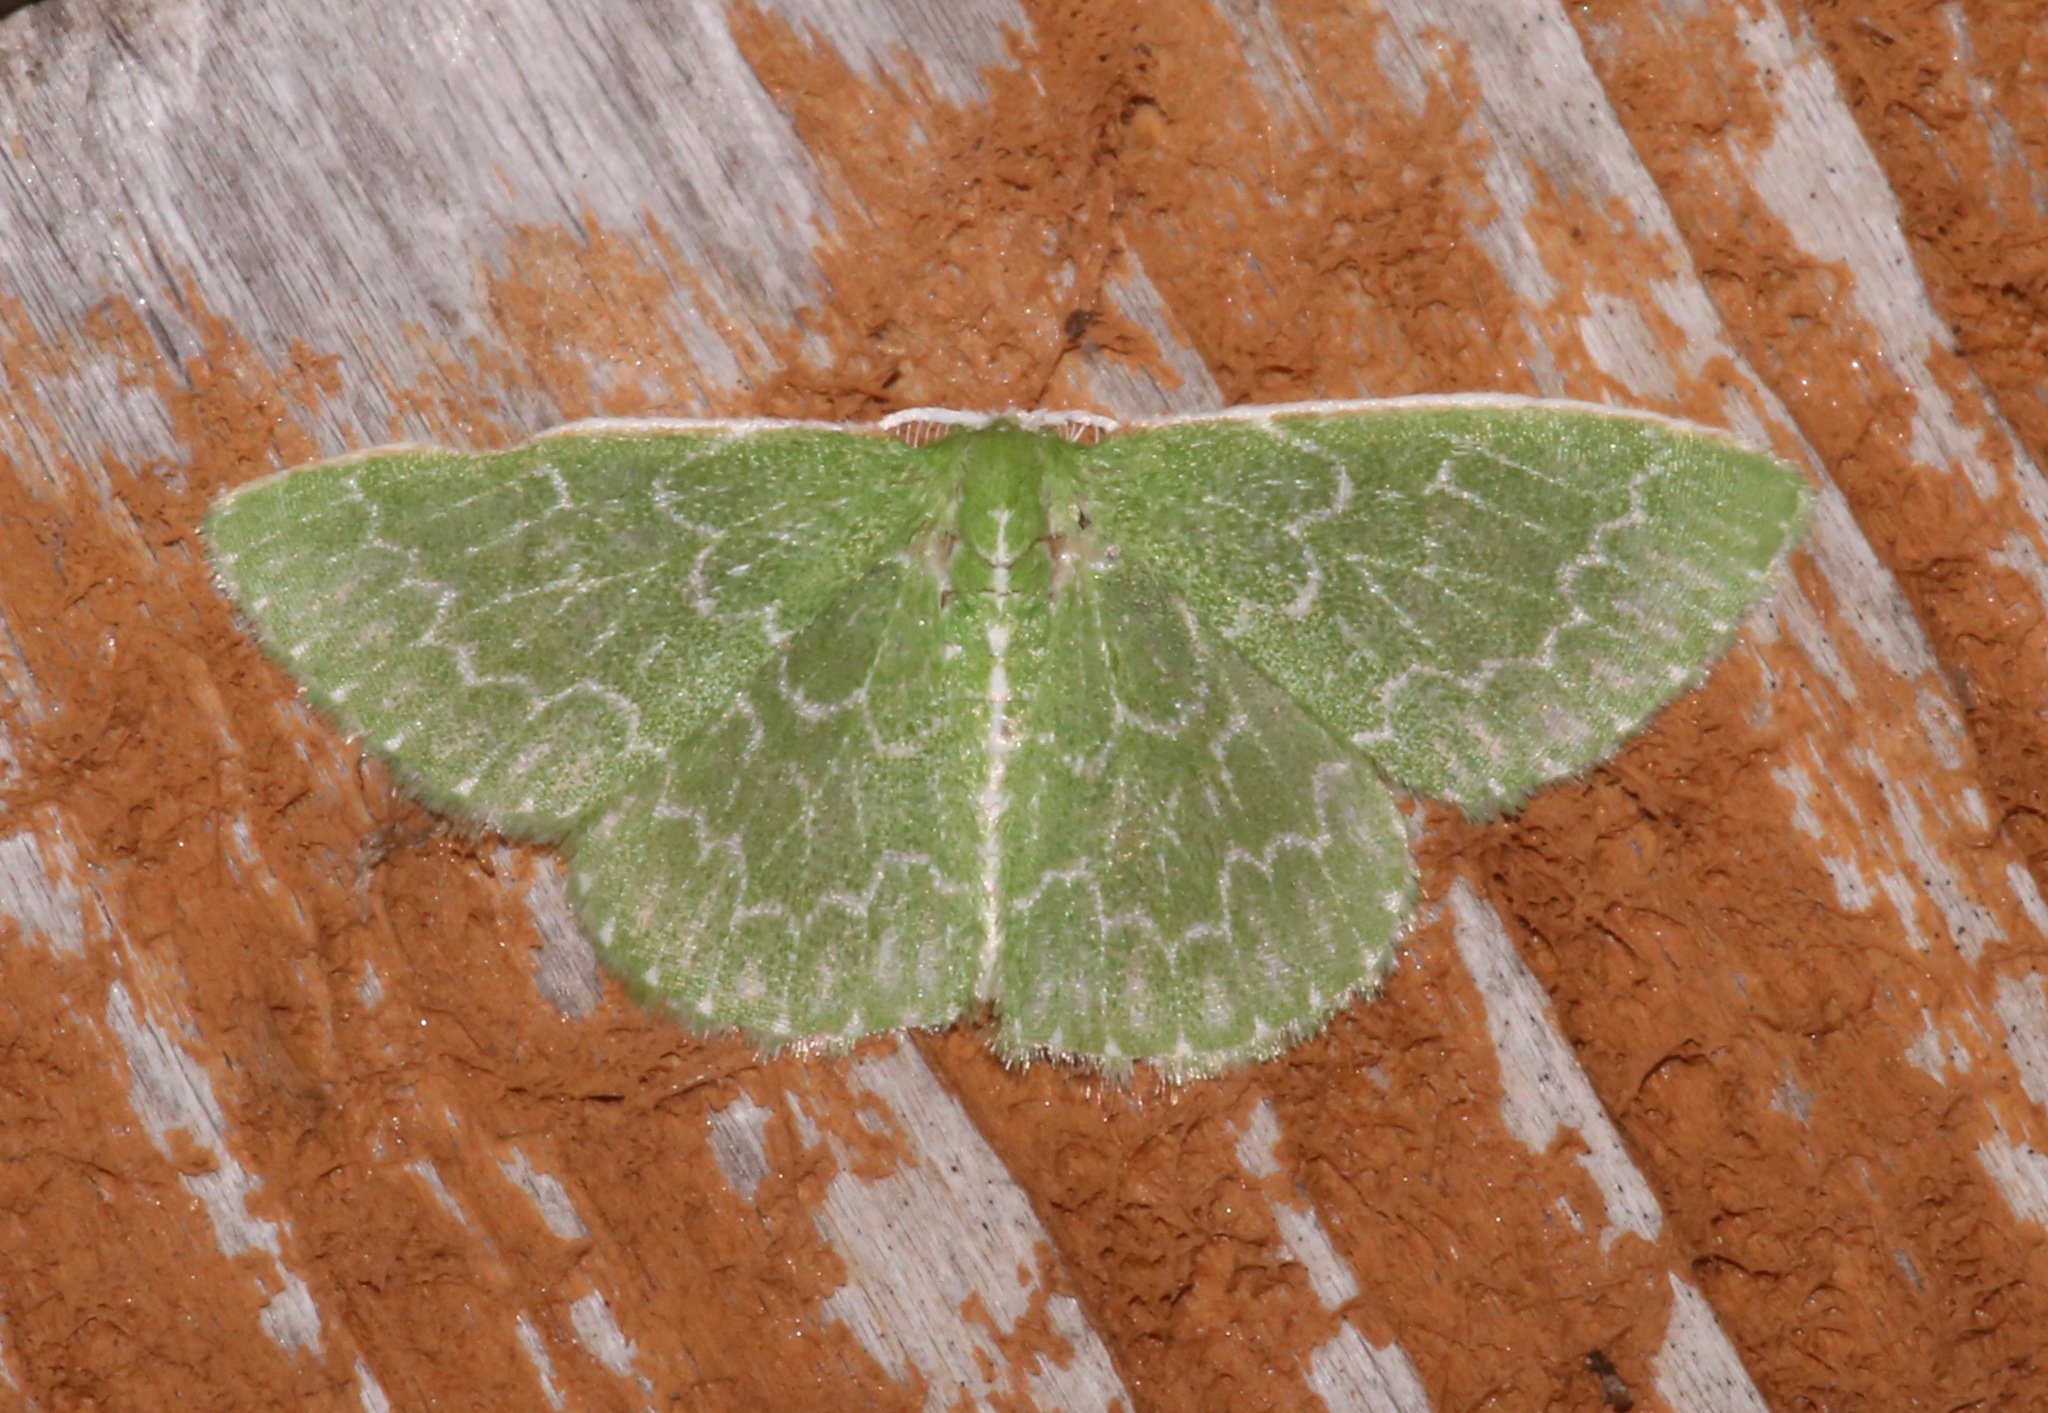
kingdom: Animalia
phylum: Arthropoda
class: Insecta
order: Lepidoptera
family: Geometridae
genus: Synchlora
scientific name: Synchlora frondaria
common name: Southern emerald
